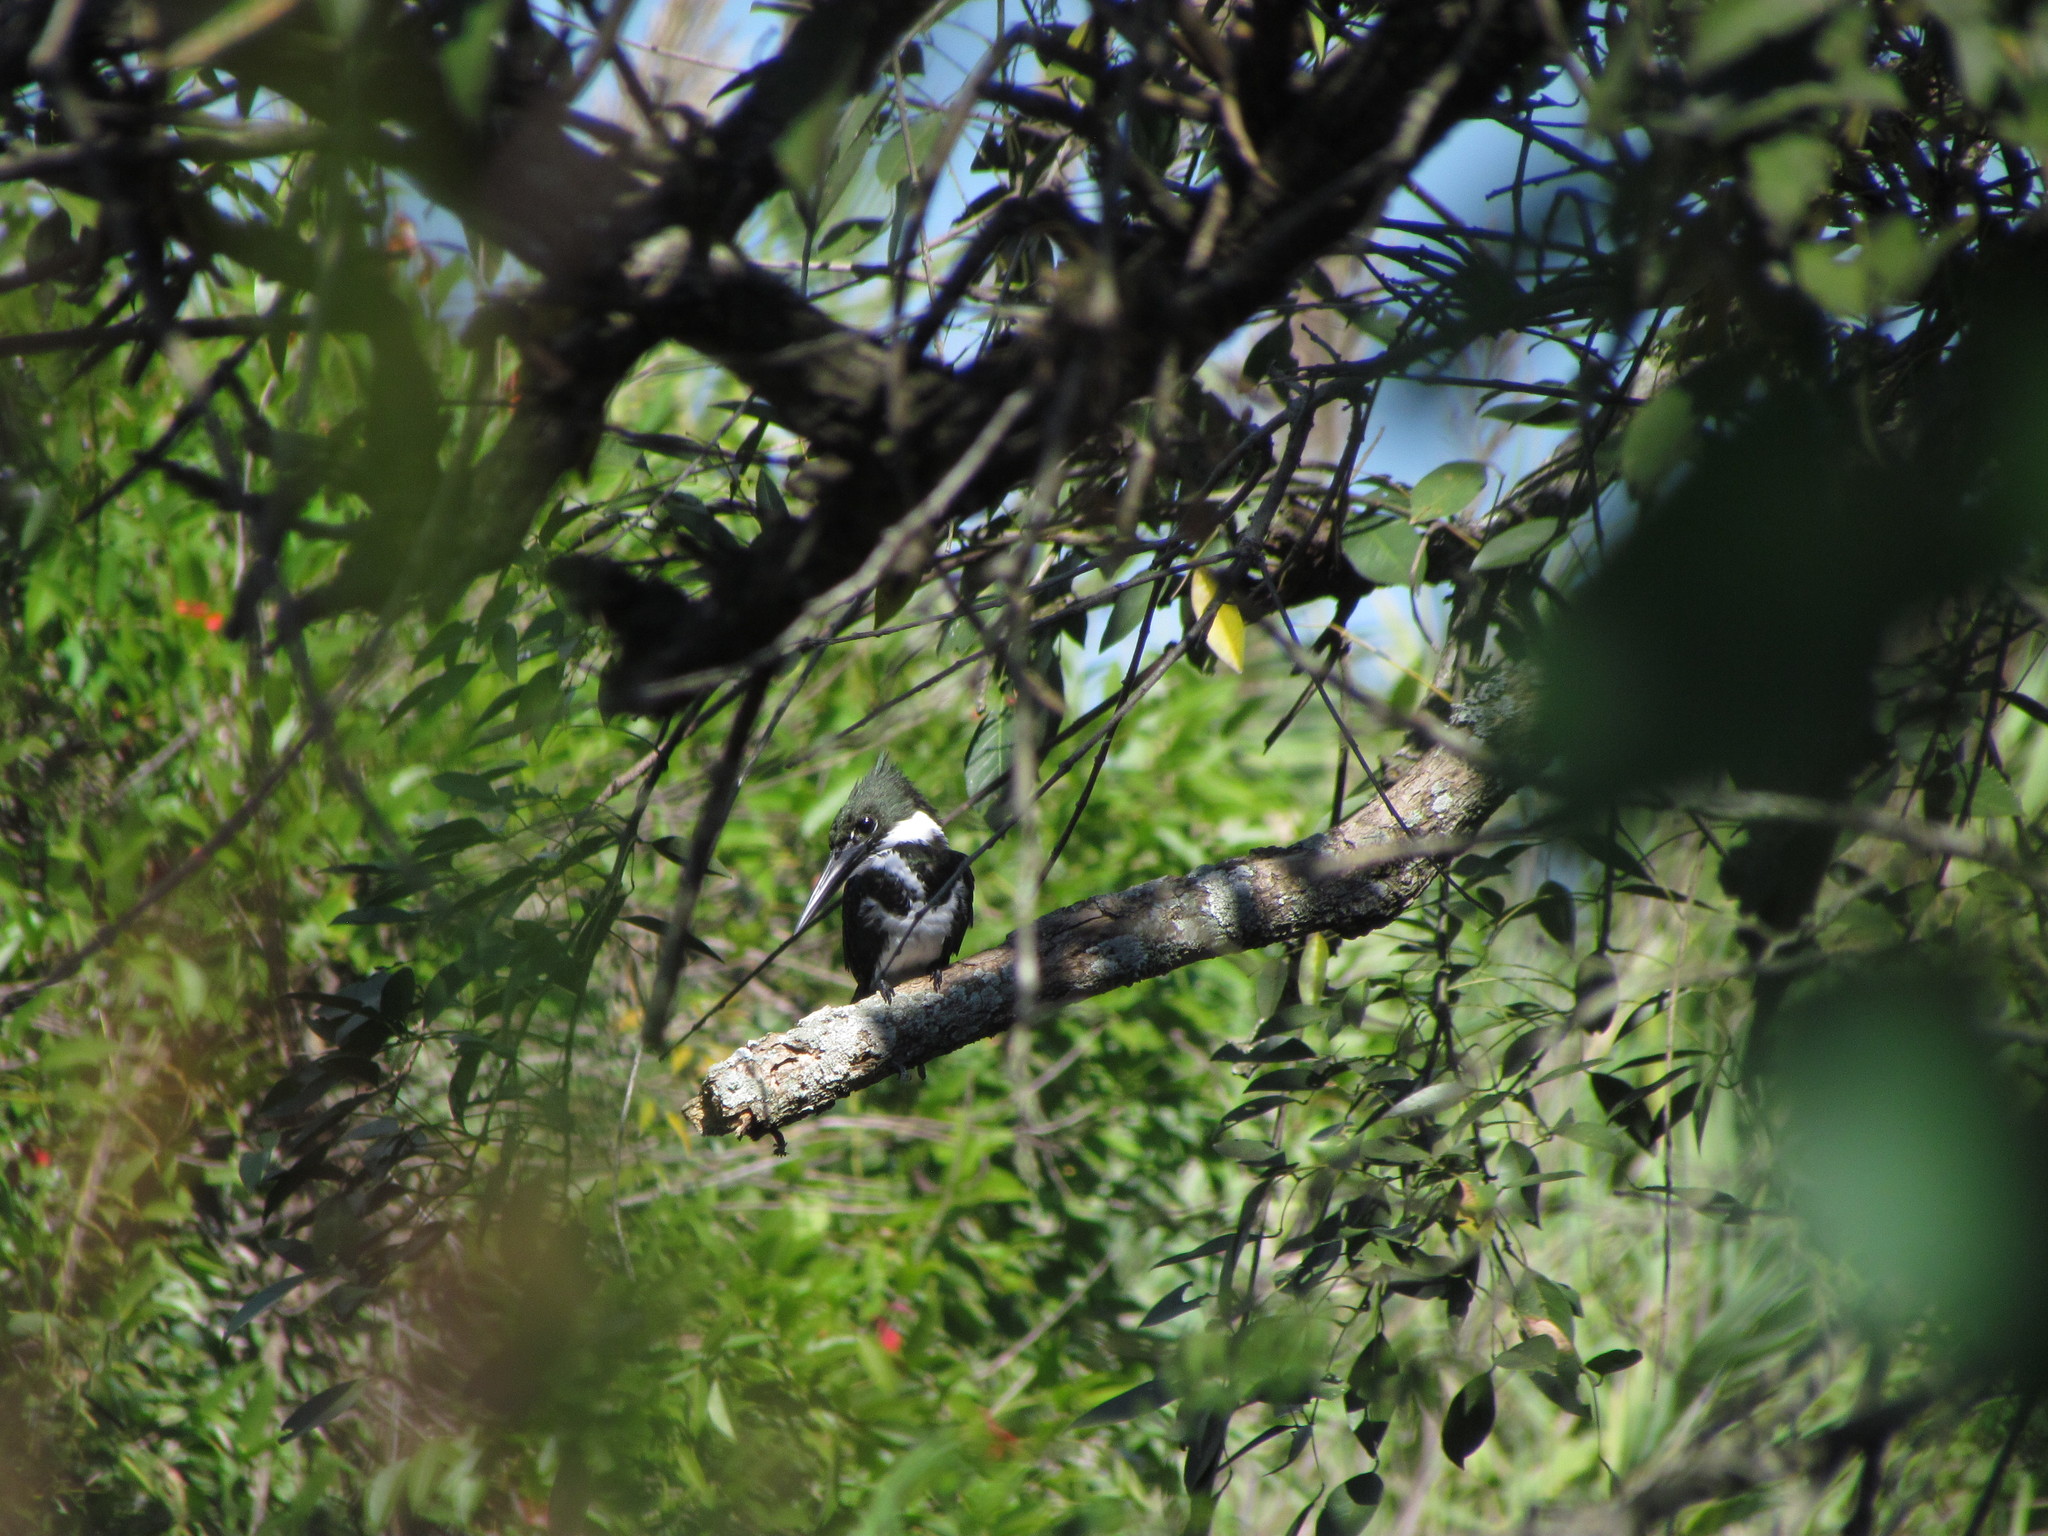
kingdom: Animalia
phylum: Chordata
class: Aves
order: Coraciiformes
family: Alcedinidae
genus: Chloroceryle
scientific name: Chloroceryle amazona
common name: Amazon kingfisher
